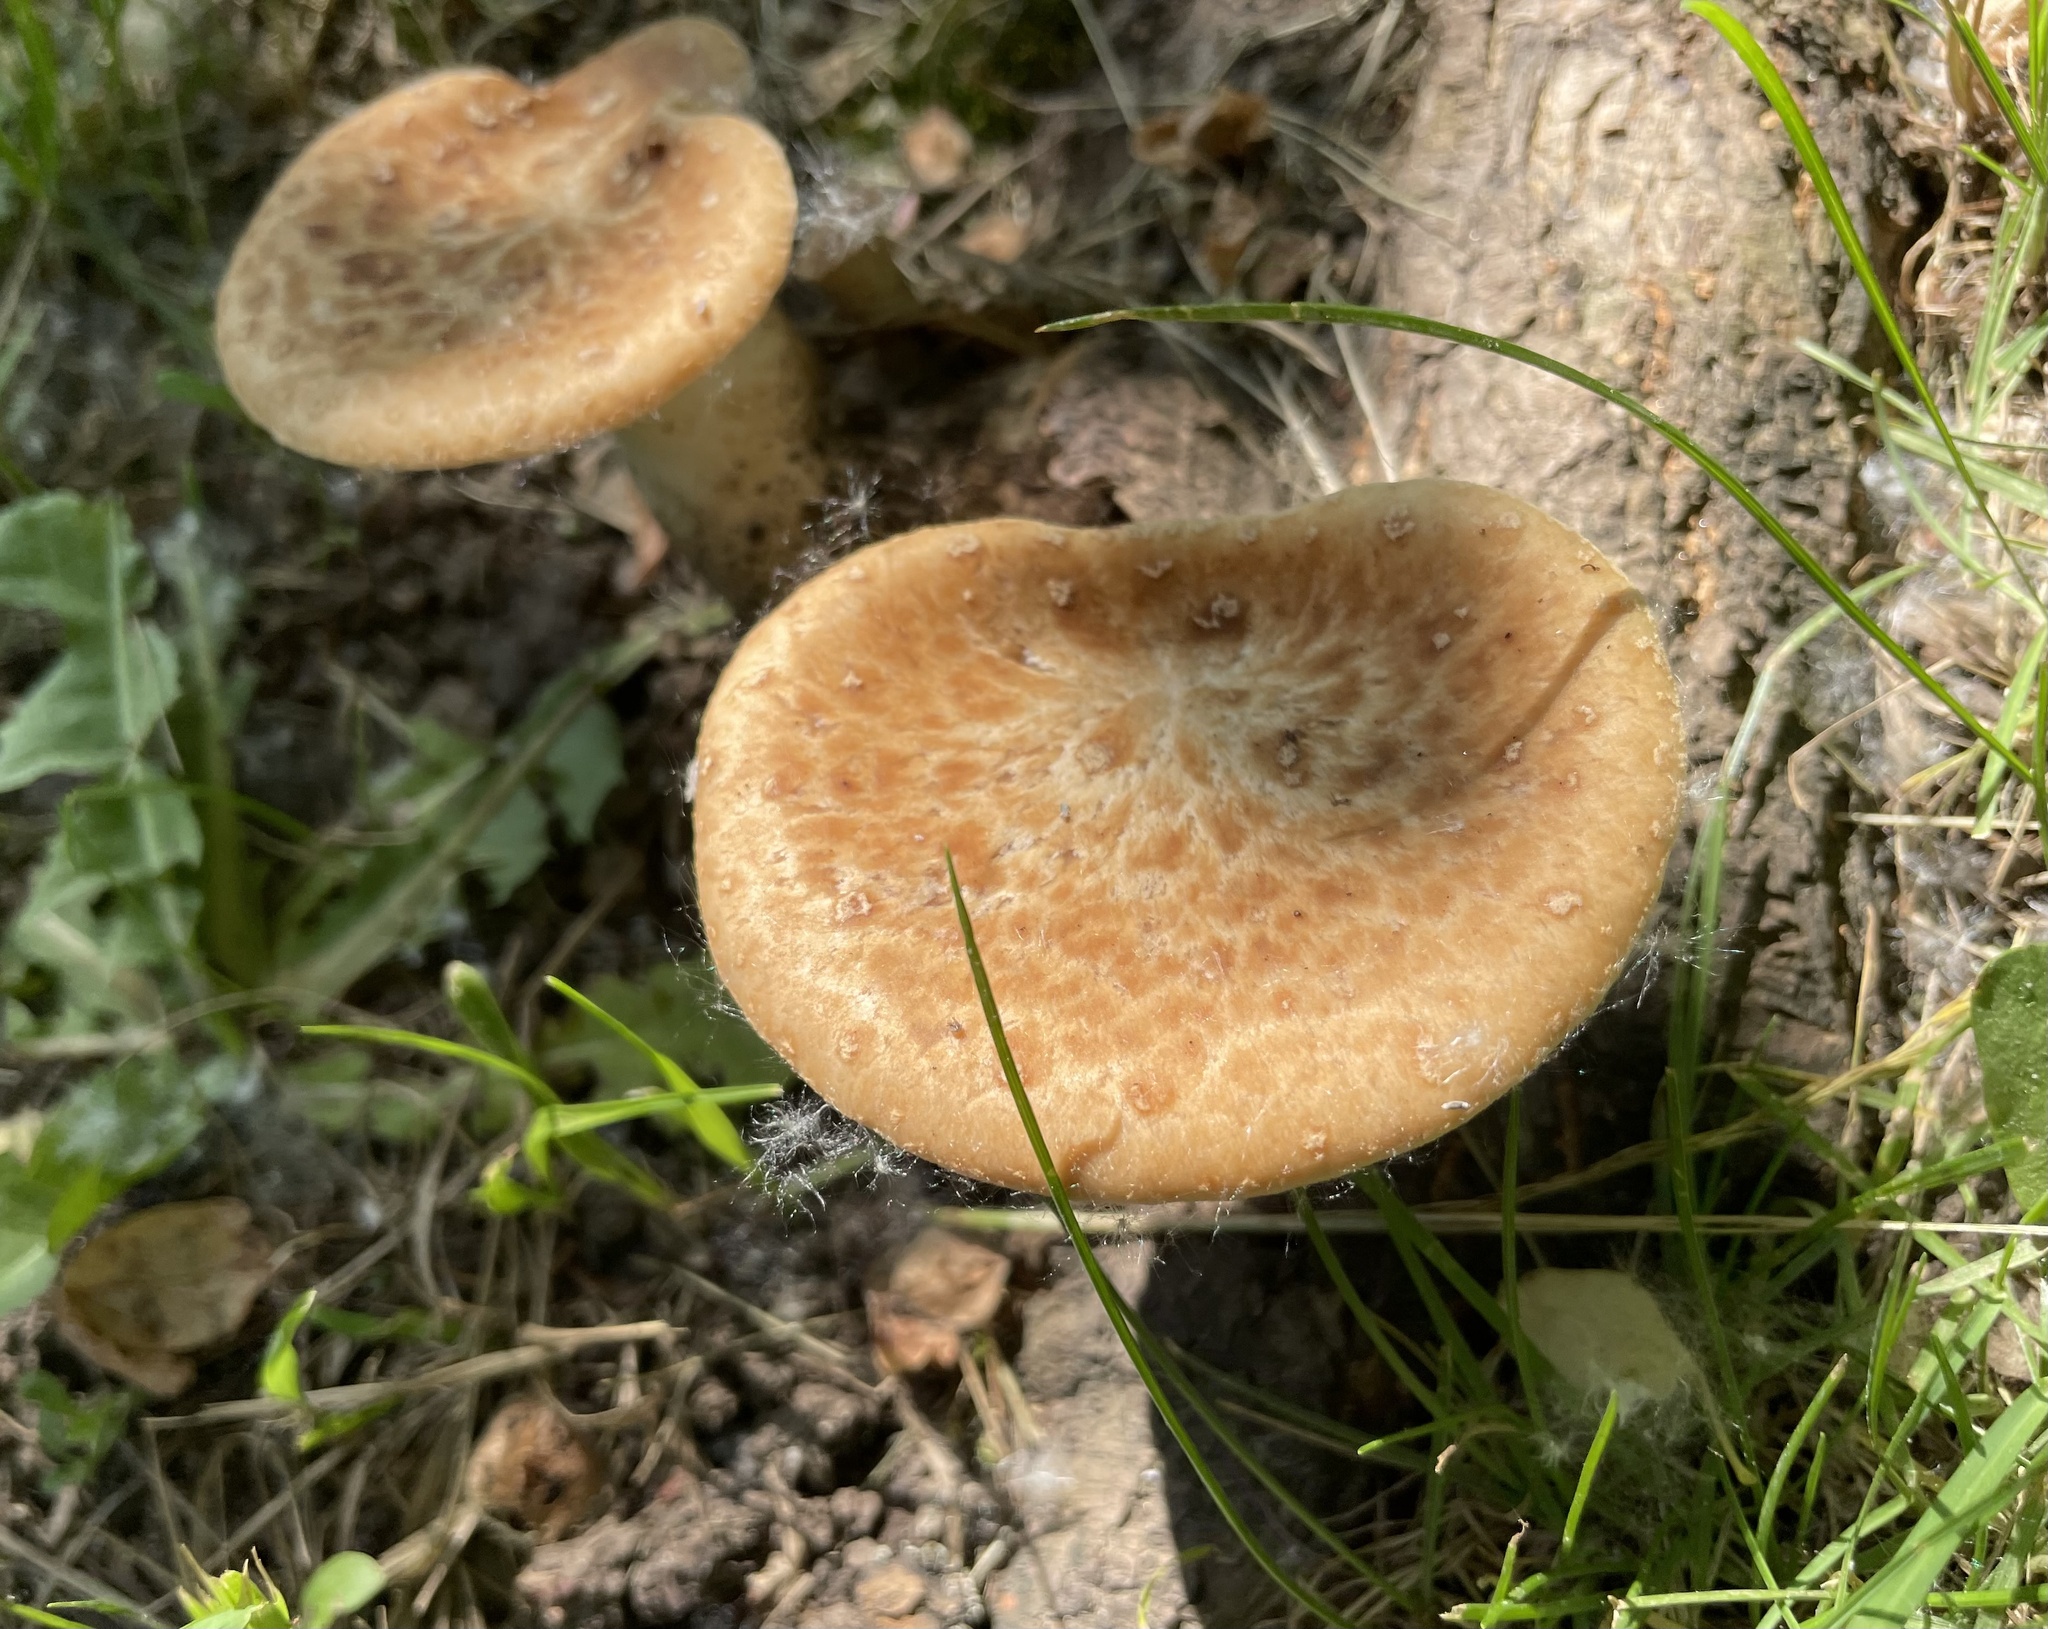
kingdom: Fungi
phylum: Basidiomycota
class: Agaricomycetes
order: Polyporales
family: Polyporaceae
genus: Polyporus
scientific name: Polyporus tuberaster
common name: Tuberous polypore
